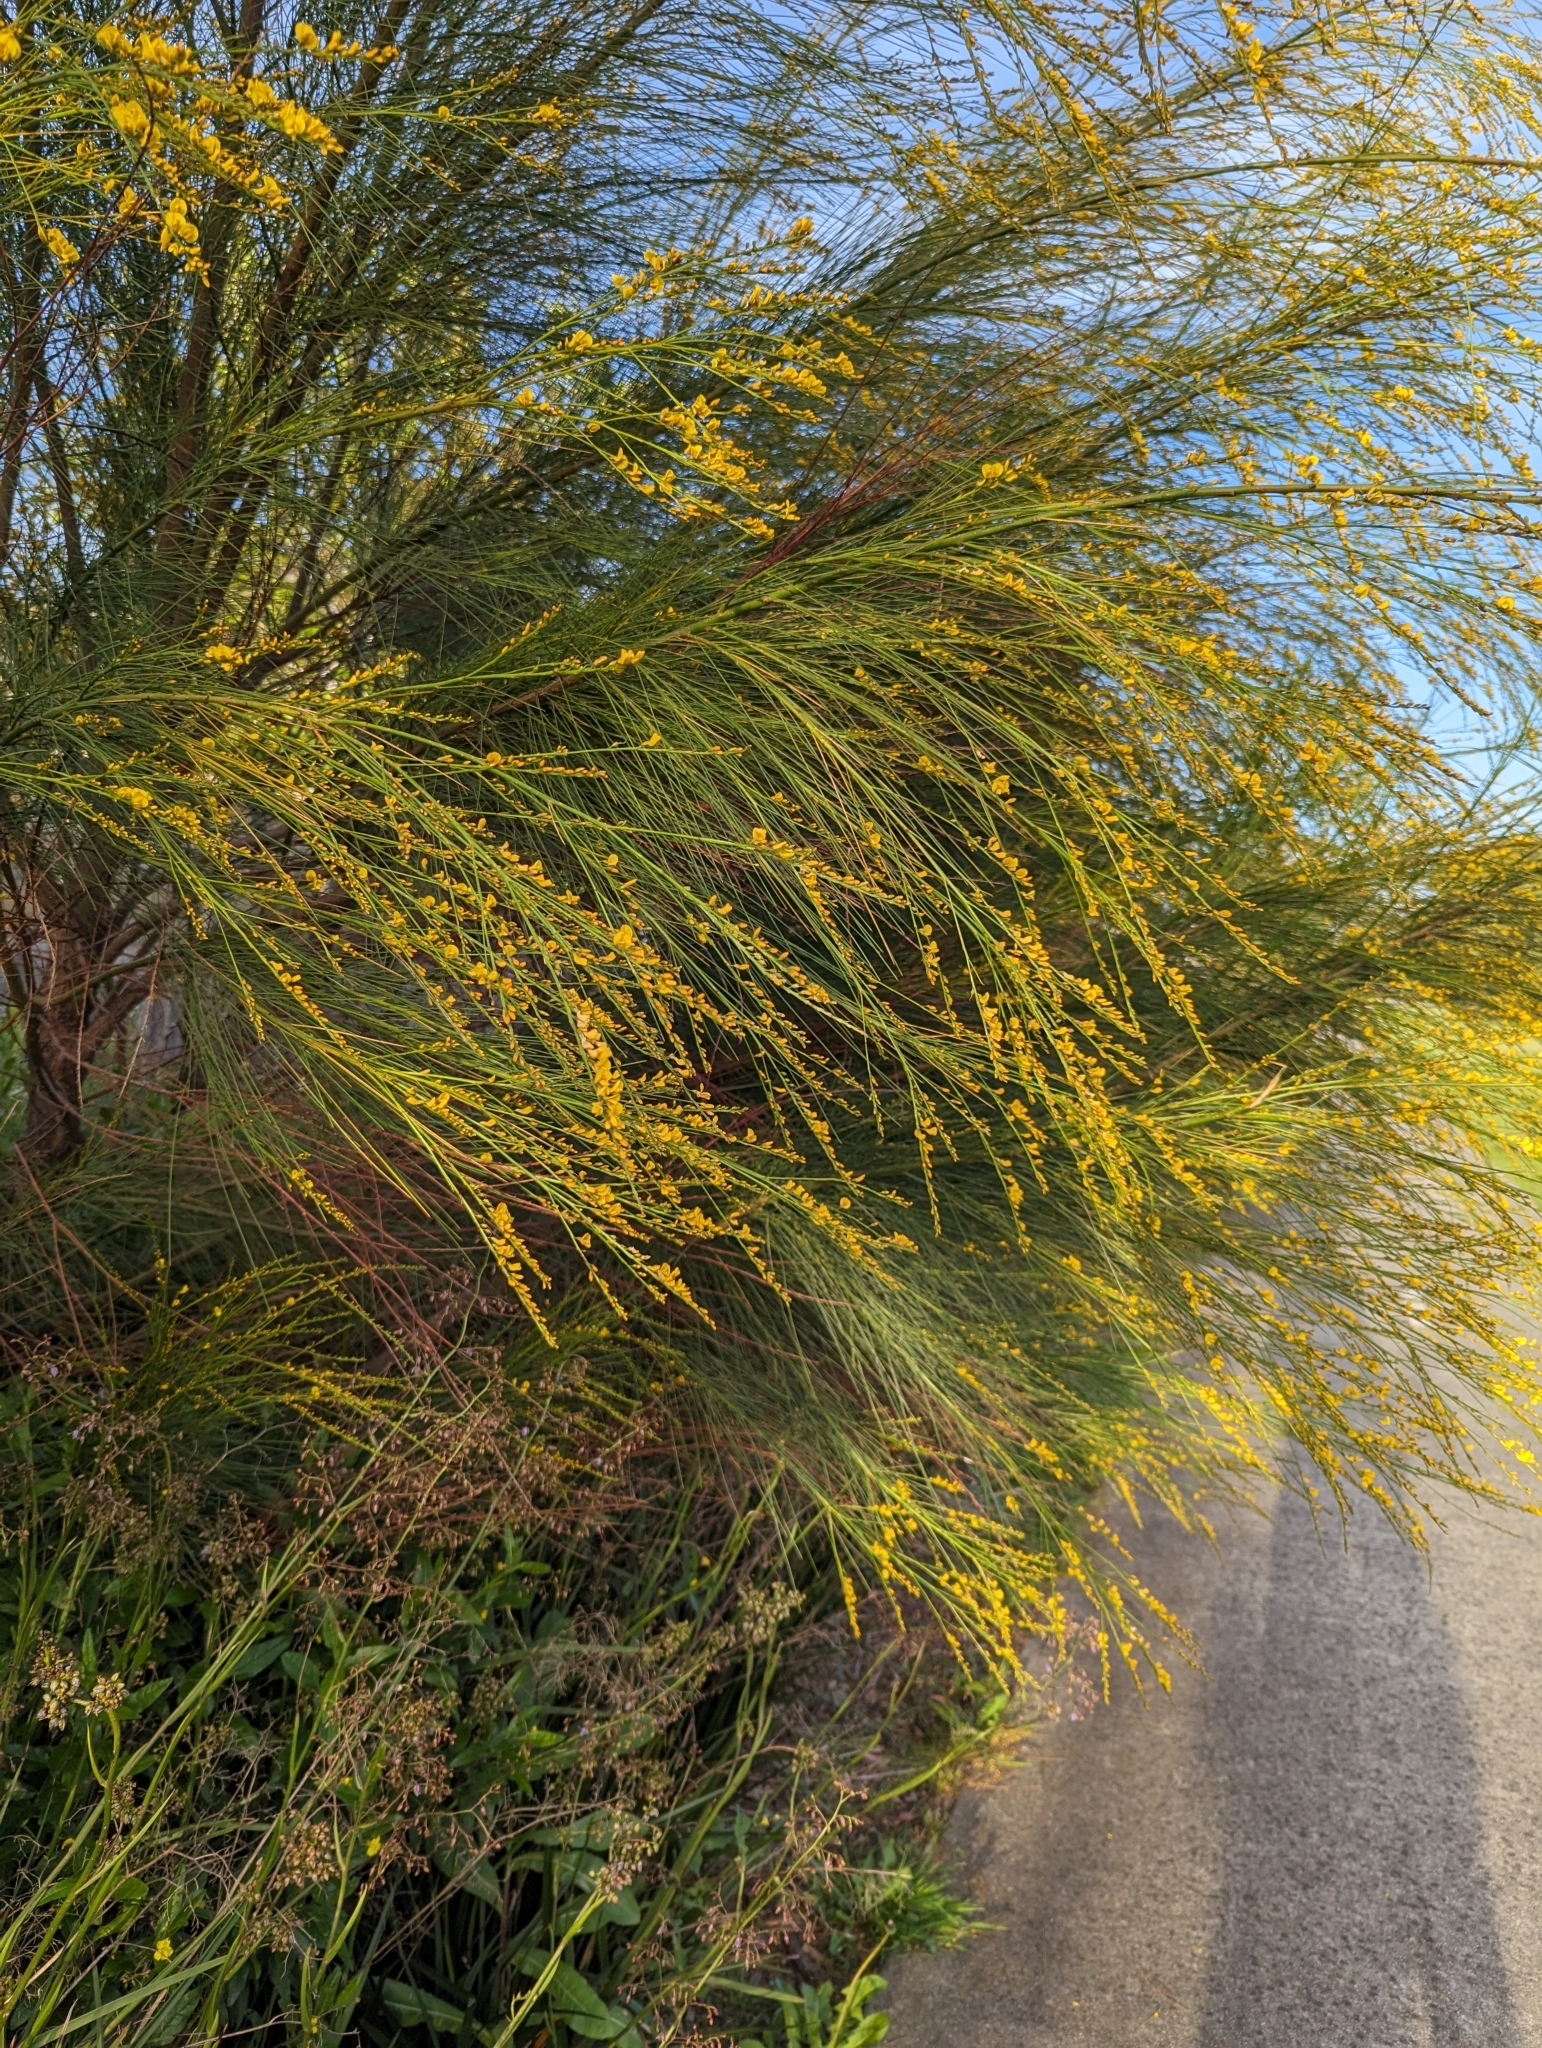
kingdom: Plantae
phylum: Tracheophyta
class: Magnoliopsida
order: Fabales
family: Fabaceae
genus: Viminaria
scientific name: Viminaria juncea
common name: Golden spray
